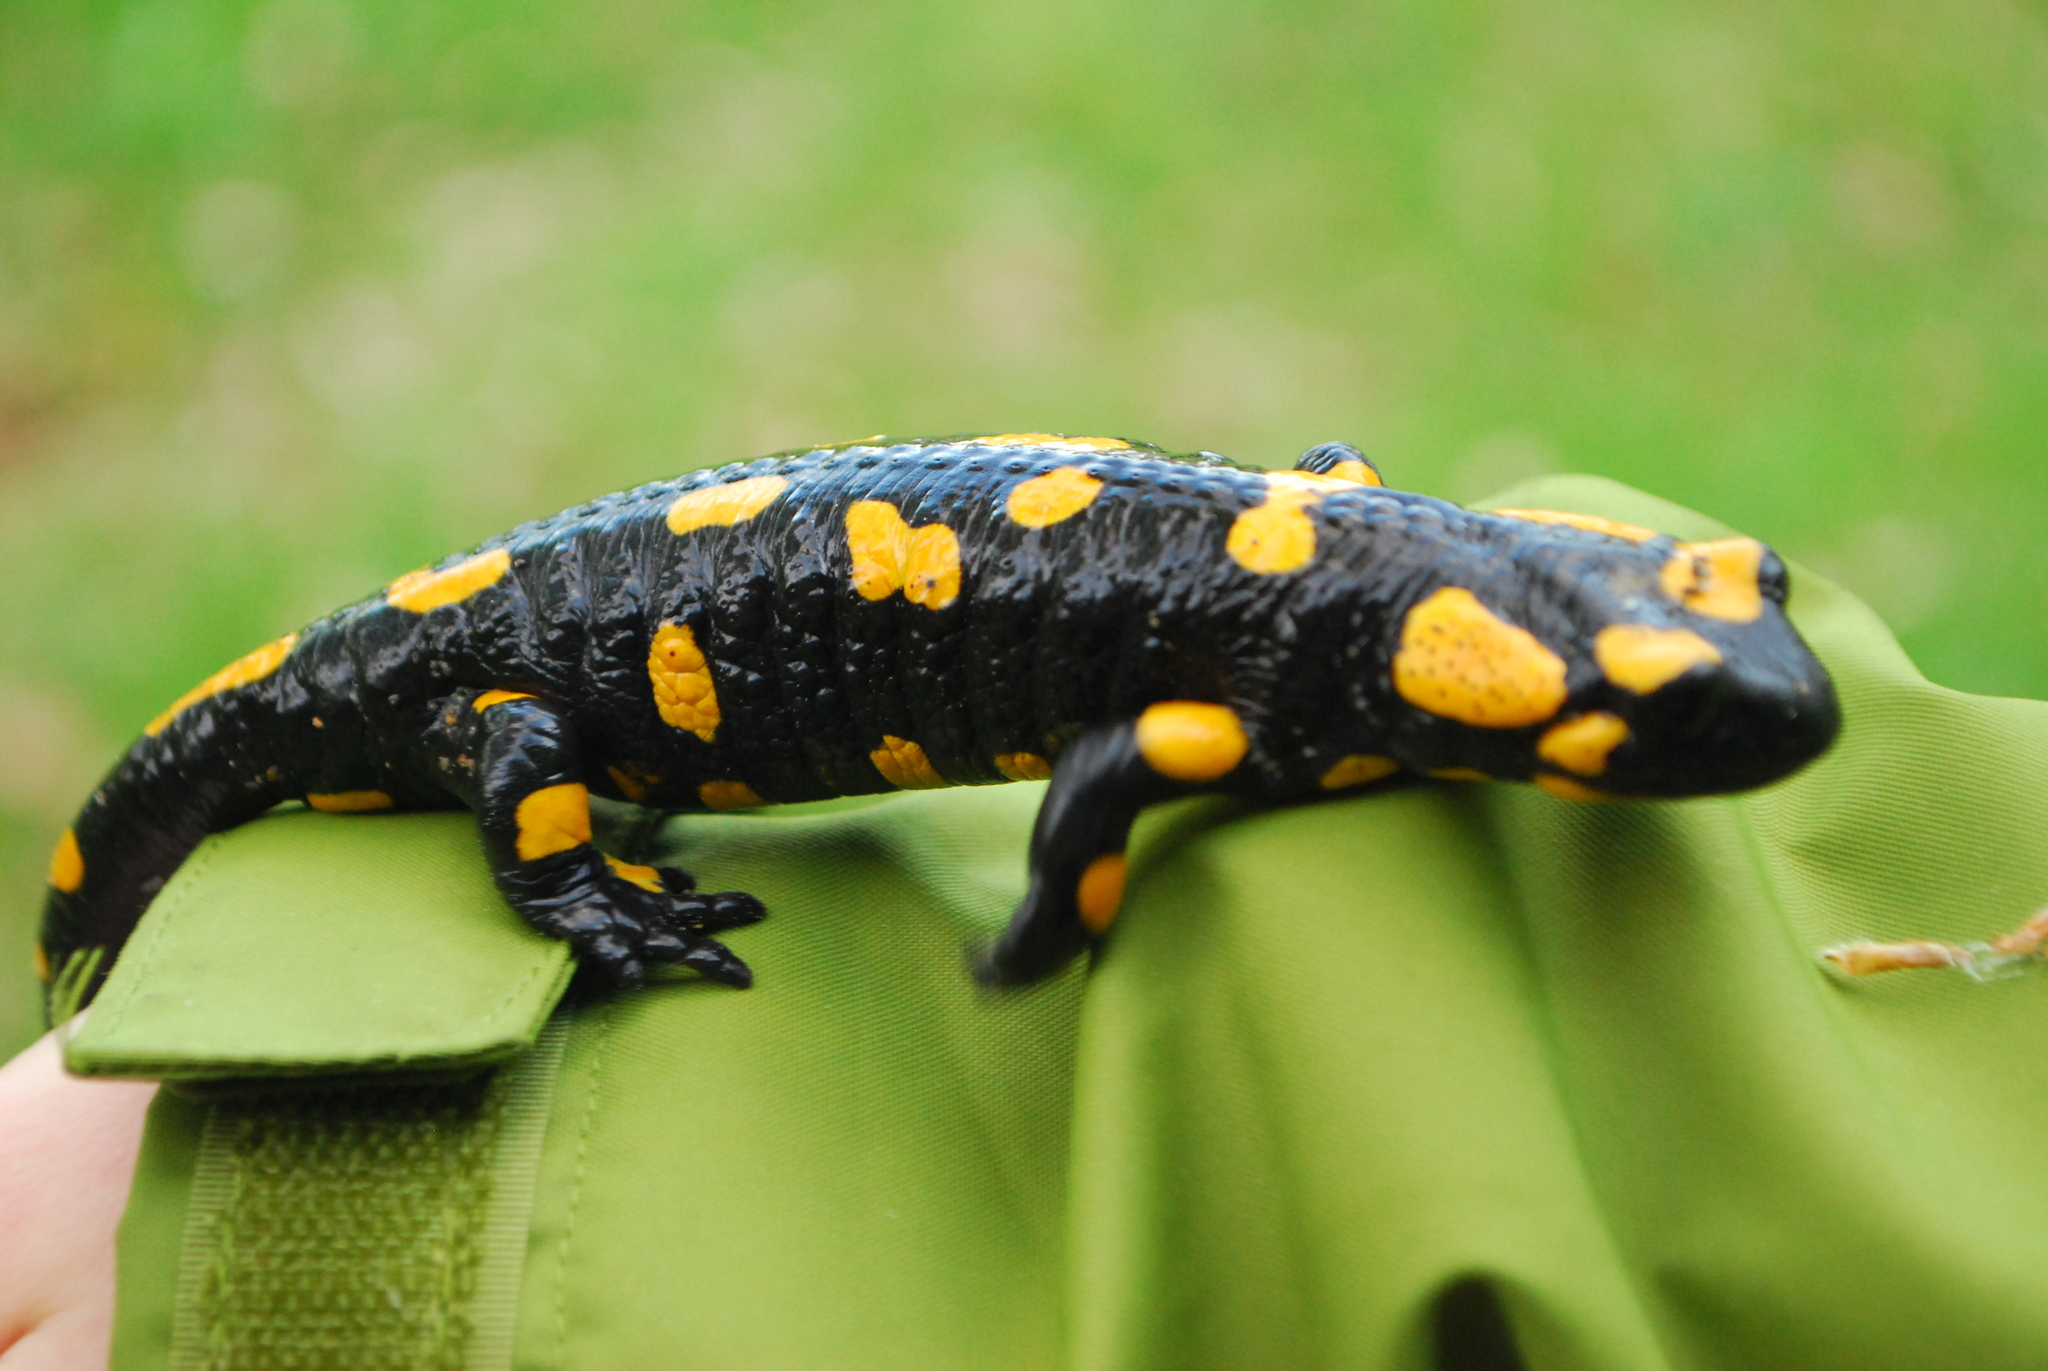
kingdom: Animalia
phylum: Chordata
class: Amphibia
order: Caudata
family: Salamandridae
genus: Salamandra
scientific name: Salamandra salamandra
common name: Fire salamander
